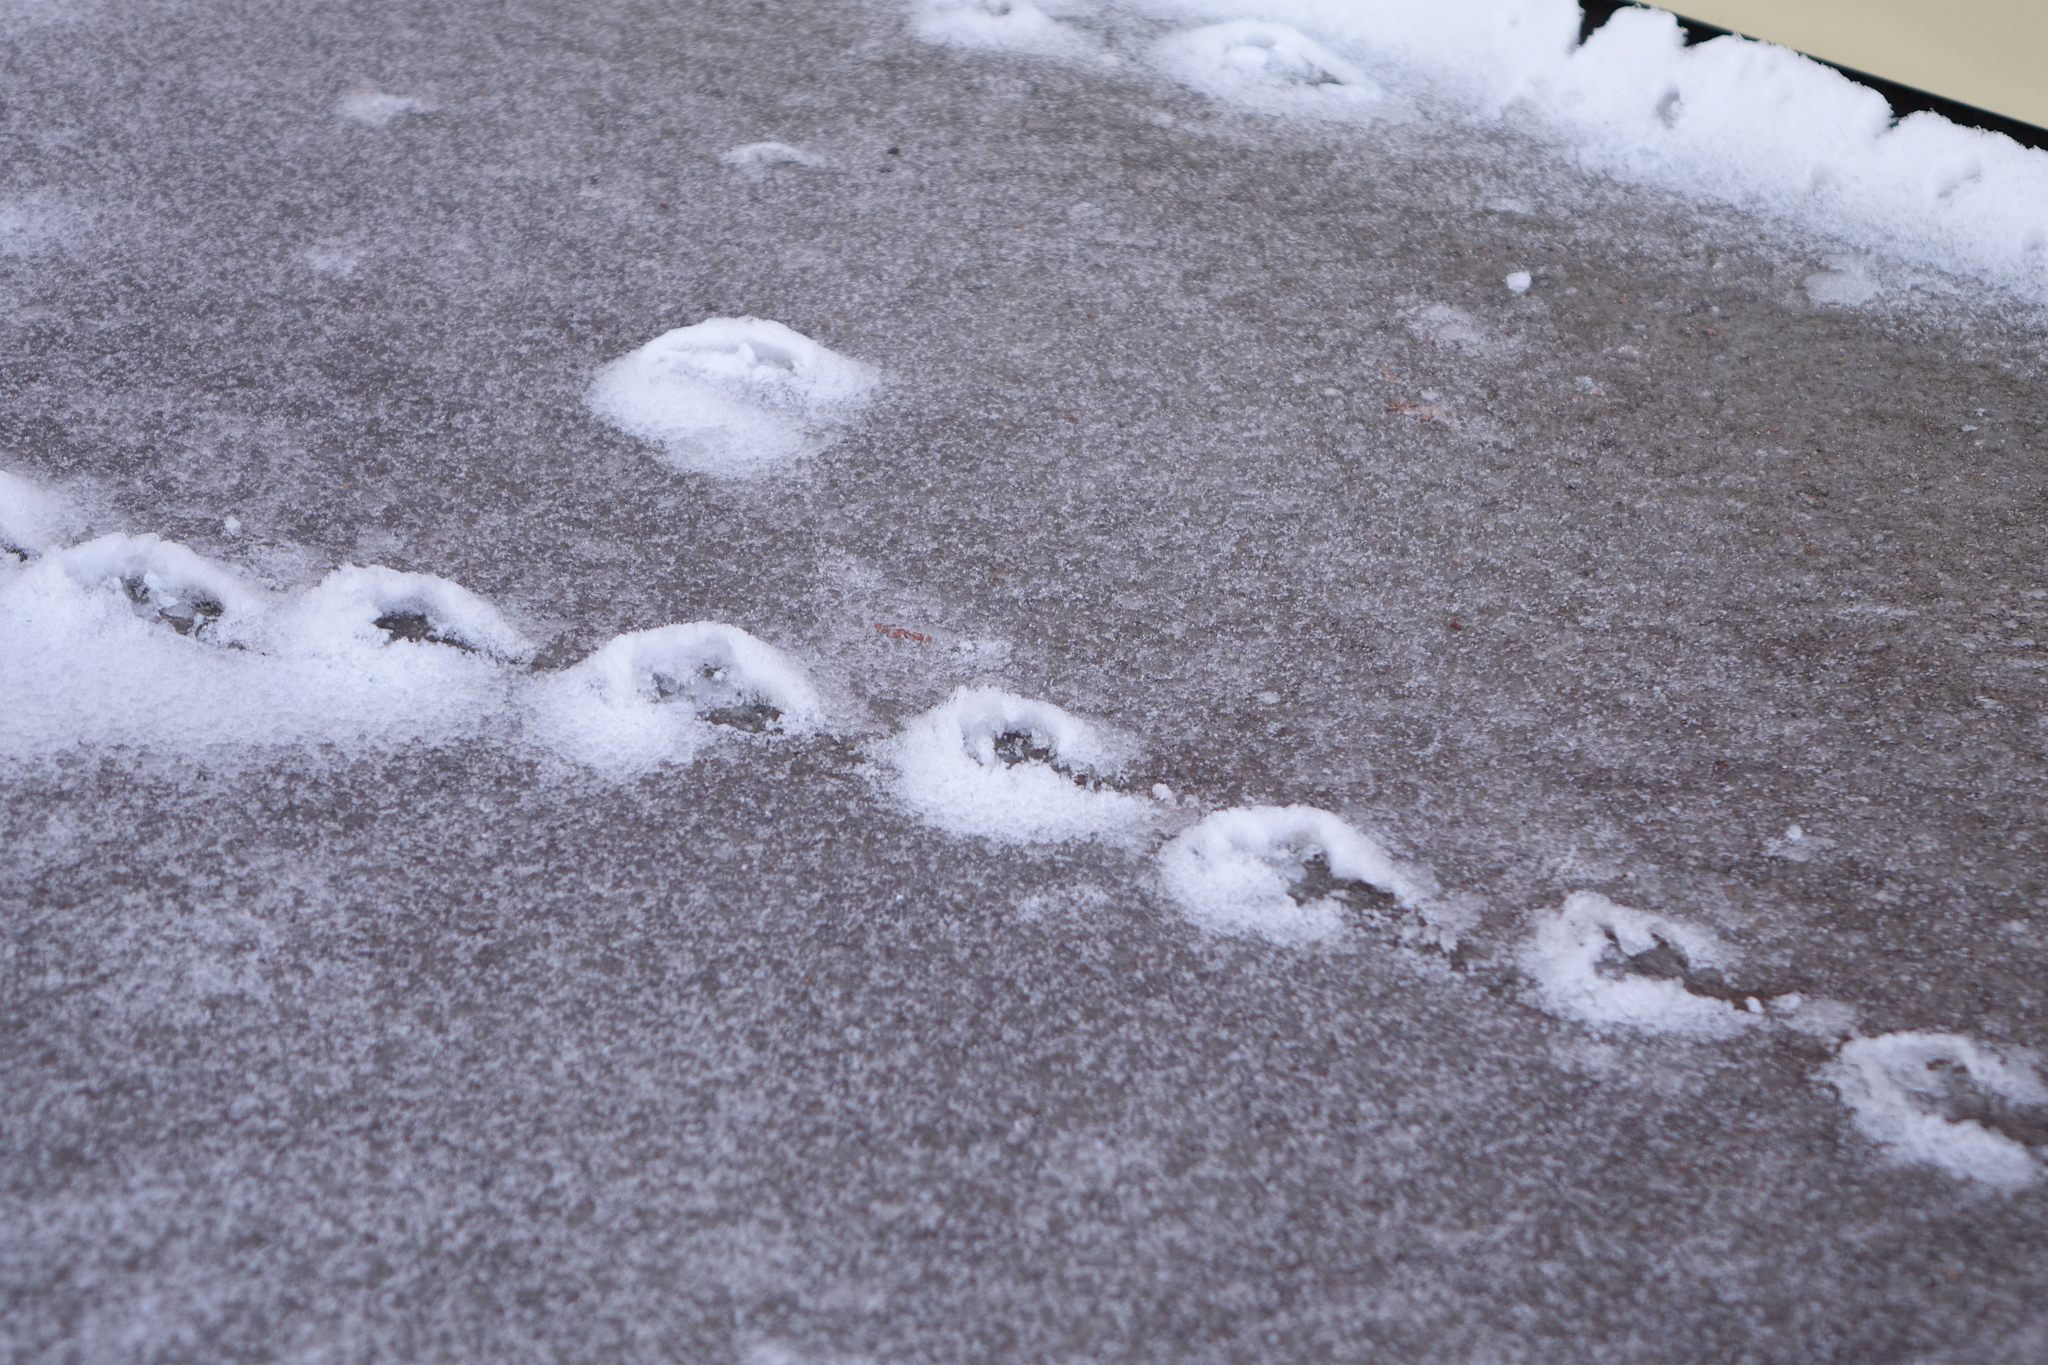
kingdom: Animalia
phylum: Chordata
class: Aves
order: Columbiformes
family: Columbidae
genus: Columba
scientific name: Columba livia
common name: Rock pigeon
